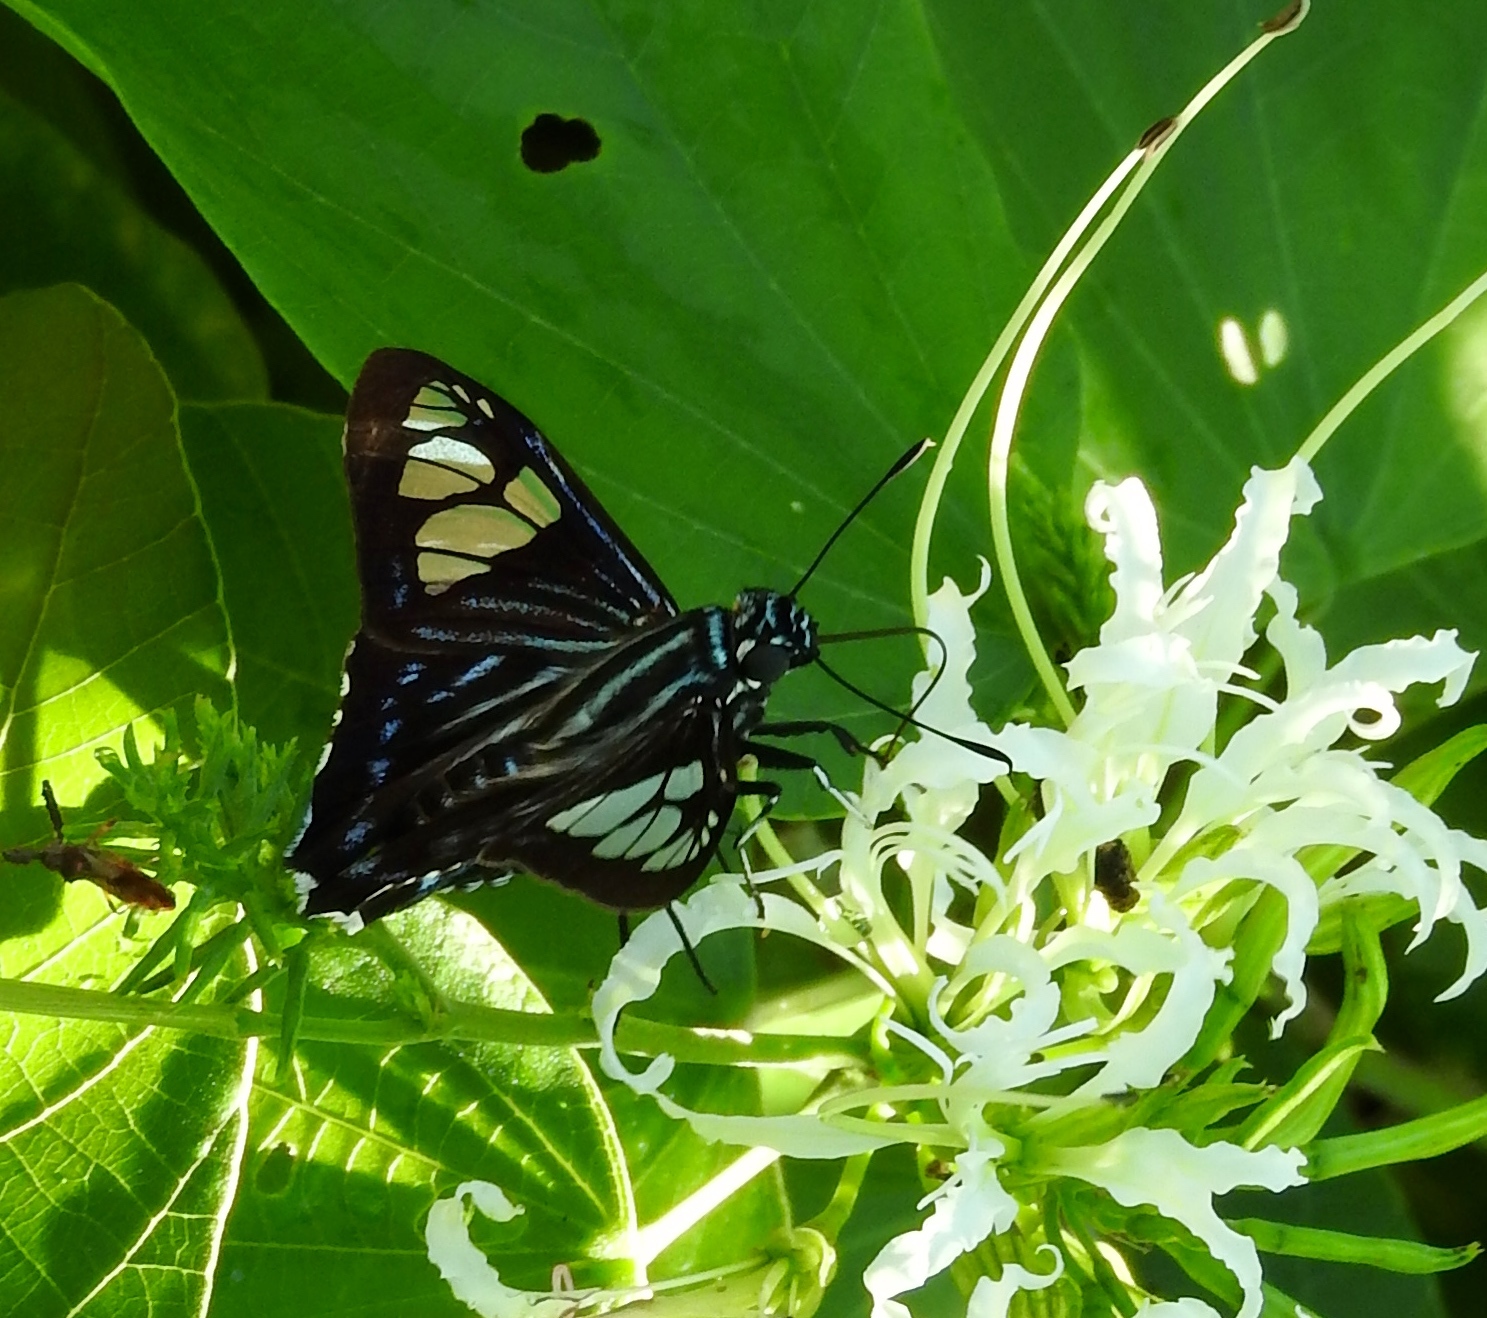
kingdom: Animalia
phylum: Arthropoda
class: Insecta
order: Lepidoptera
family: Hesperiidae
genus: Phocides
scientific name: Phocides pigmalion
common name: Mangrove skipper
